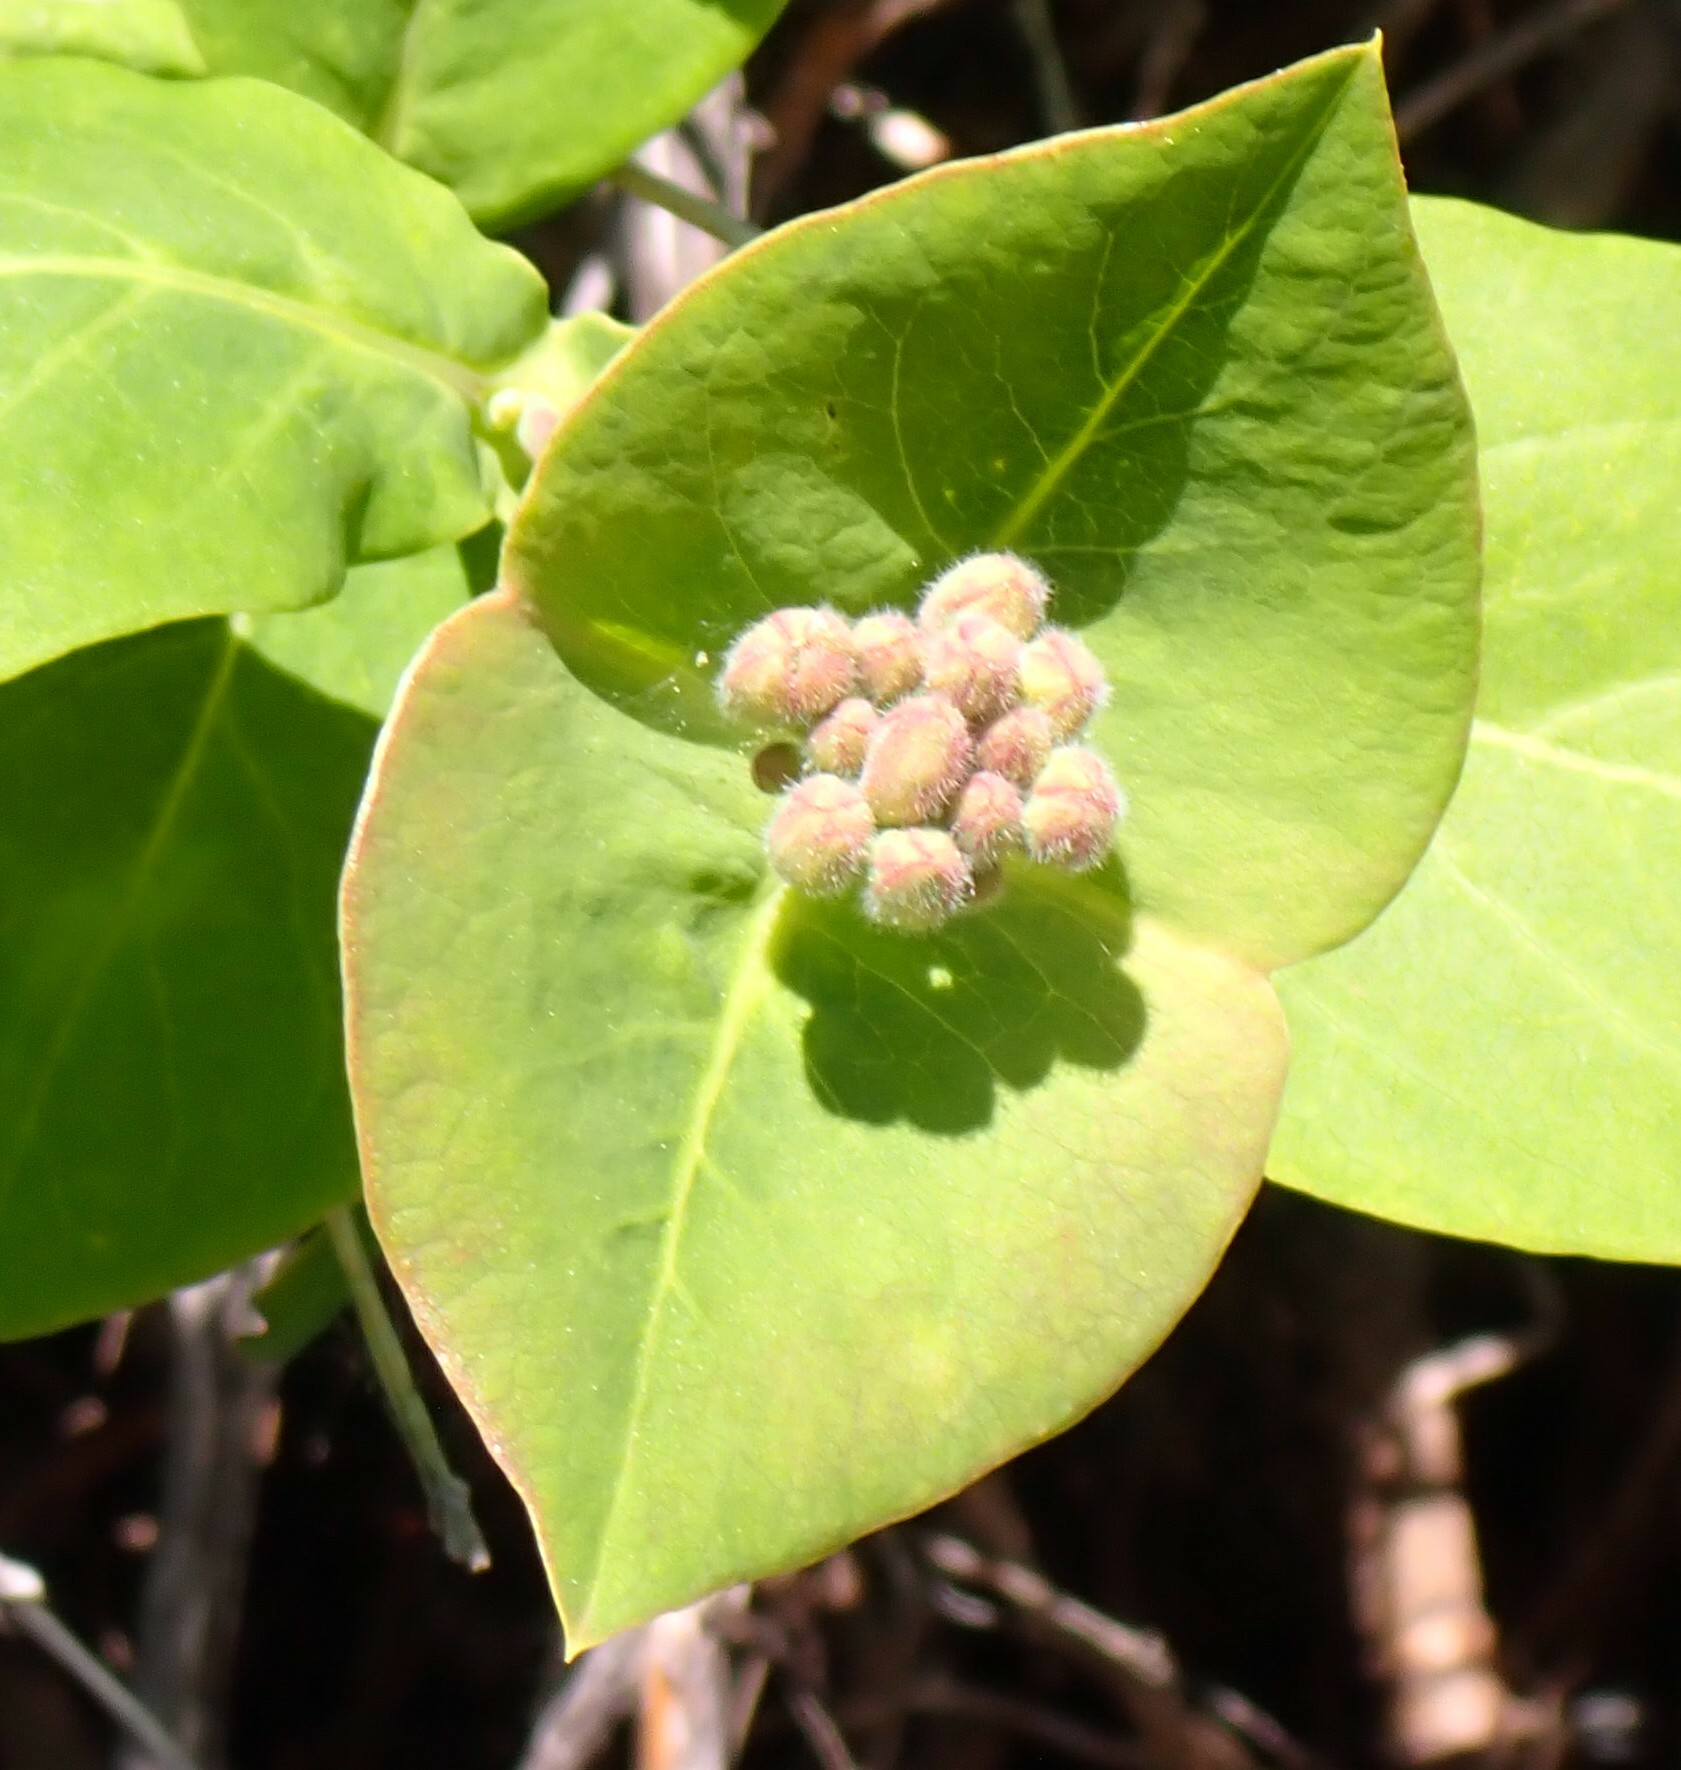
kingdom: Plantae
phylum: Tracheophyta
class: Magnoliopsida
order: Dipsacales
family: Caprifoliaceae
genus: Lonicera
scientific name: Lonicera dioica
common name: Limber honeysuckle
